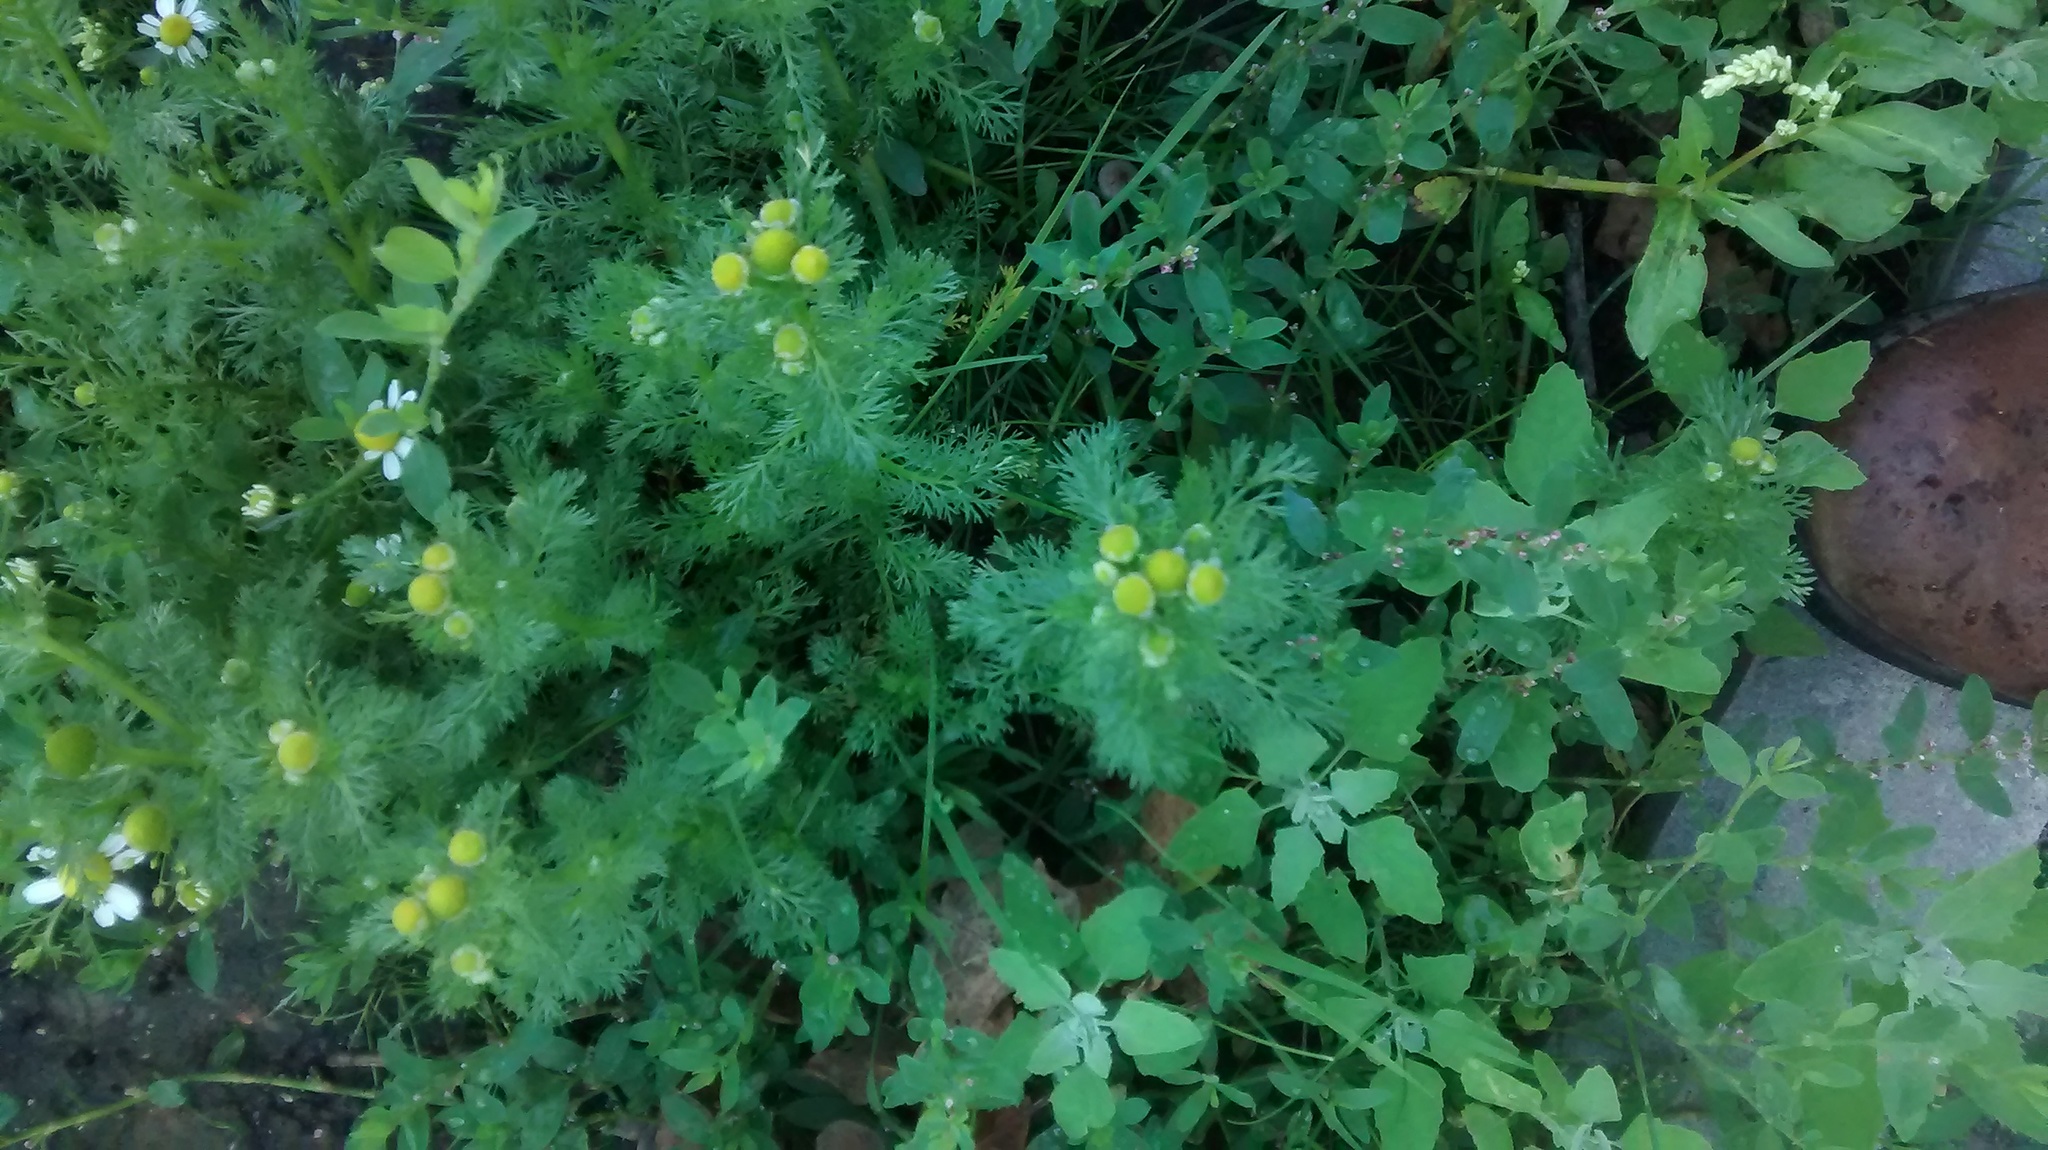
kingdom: Plantae
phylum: Tracheophyta
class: Magnoliopsida
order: Asterales
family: Asteraceae
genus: Matricaria
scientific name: Matricaria discoidea
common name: Disc mayweed
